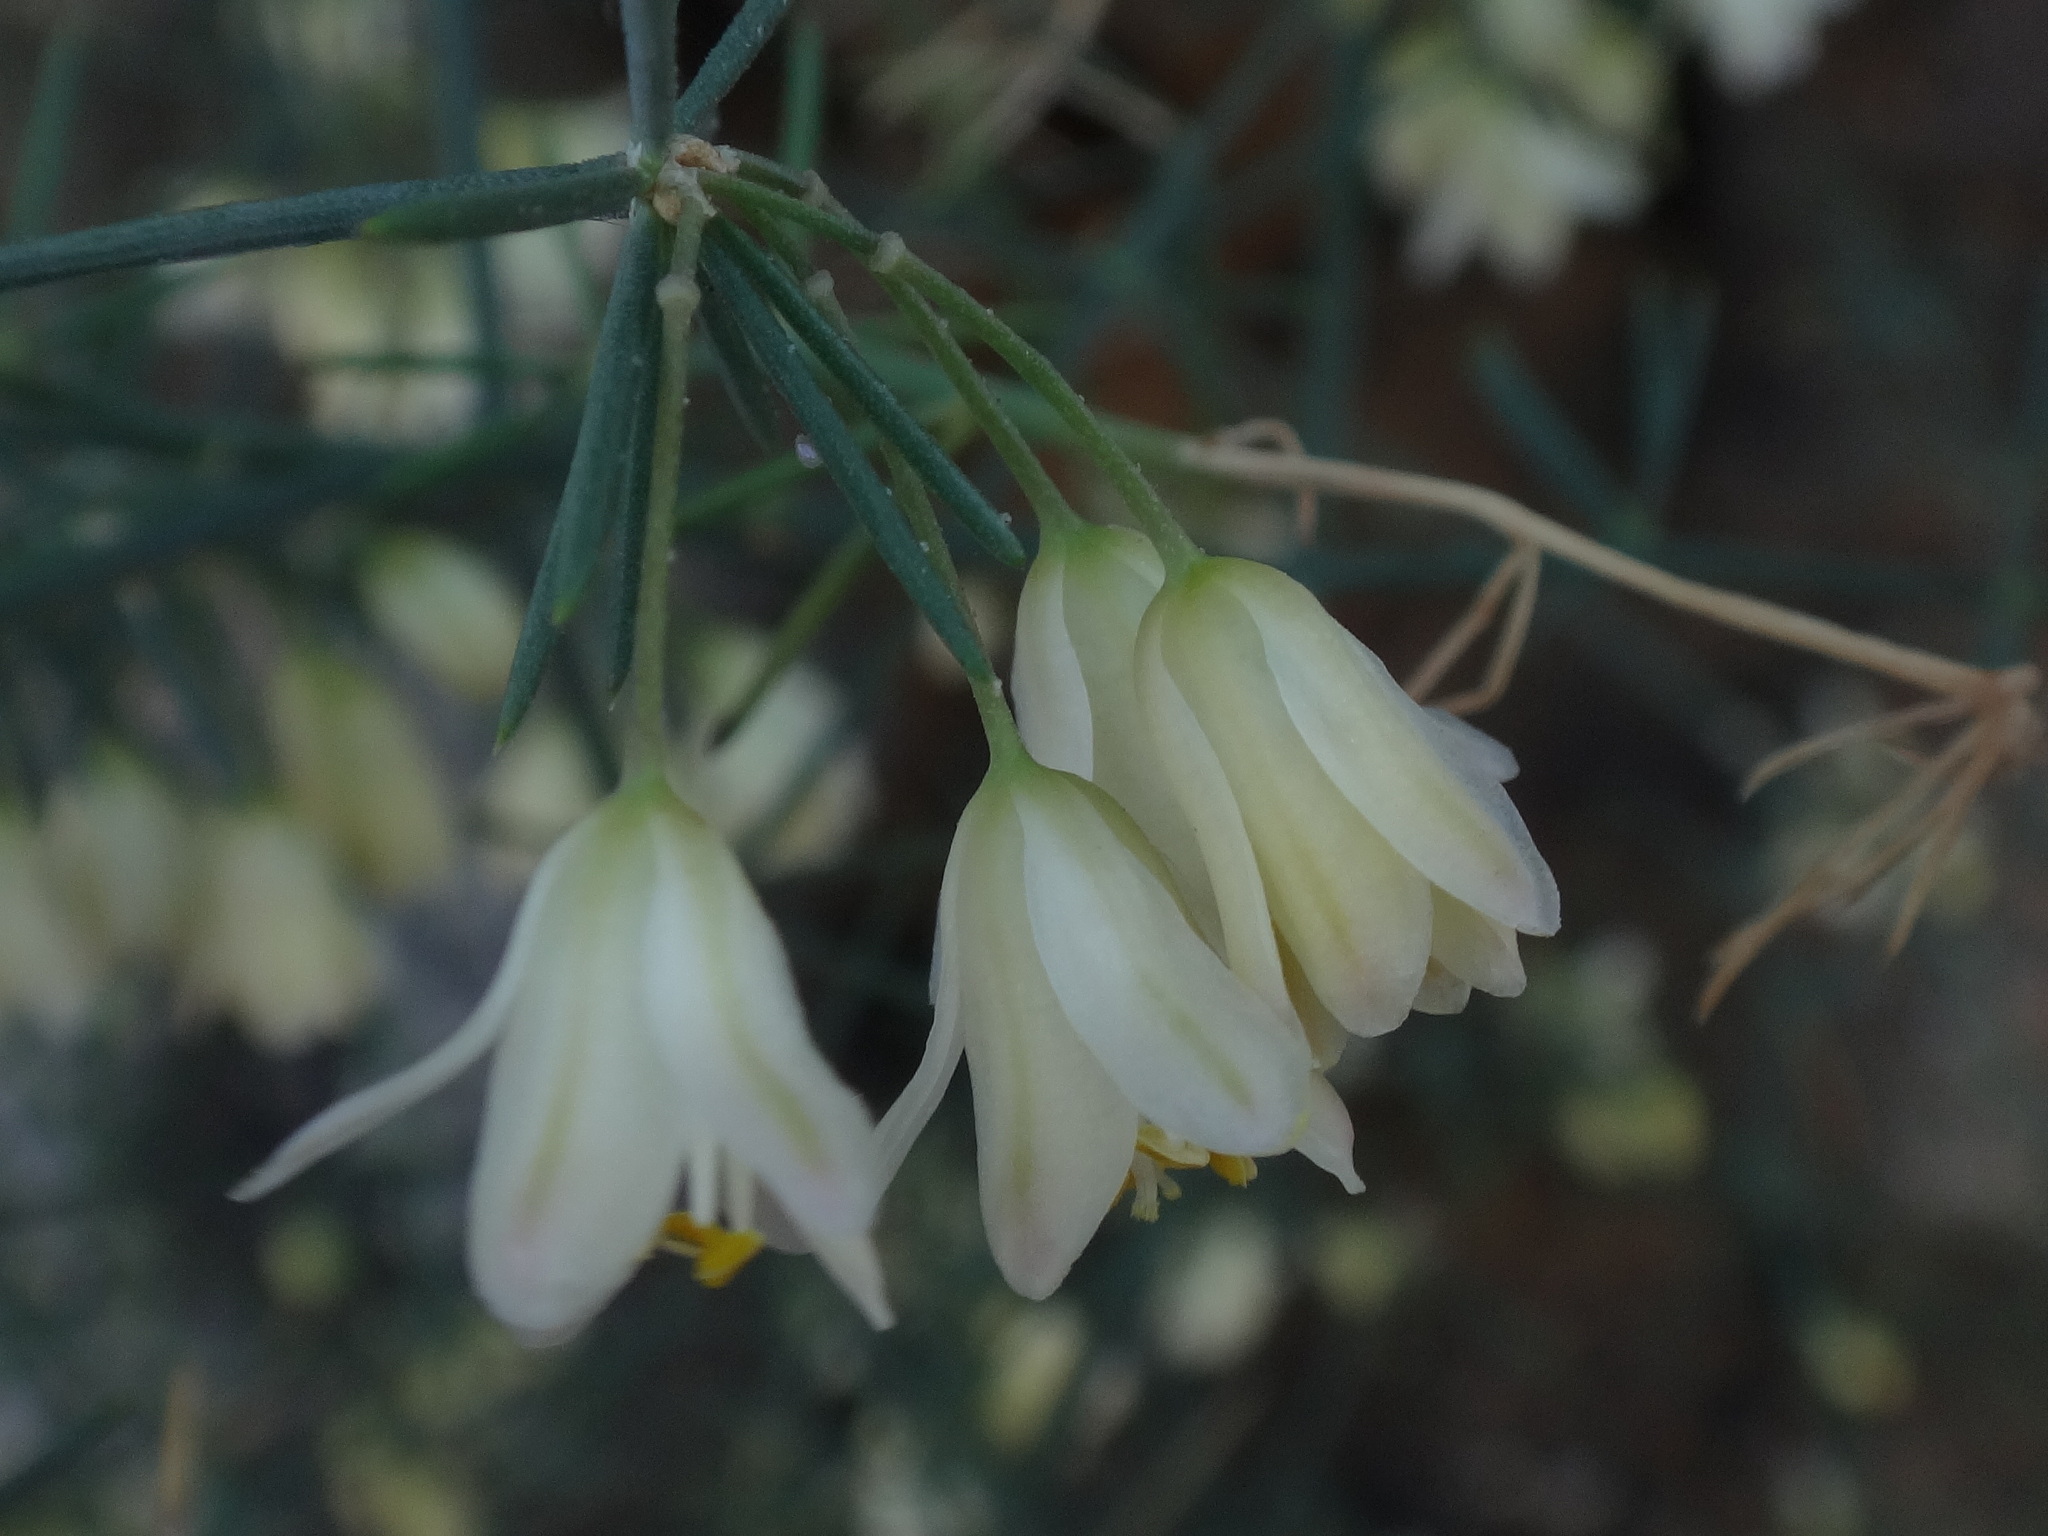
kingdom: Plantae
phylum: Tracheophyta
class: Liliopsida
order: Asparagales
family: Asparagaceae
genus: Asparagus
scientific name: Asparagus umbellatus
